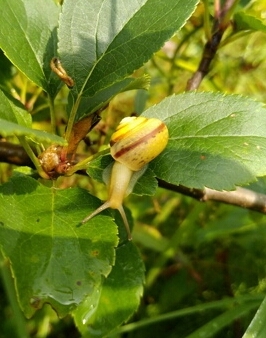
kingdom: Animalia
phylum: Mollusca
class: Gastropoda
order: Stylommatophora
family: Camaenidae
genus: Fruticicola
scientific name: Fruticicola fruticum
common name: Bush snail
